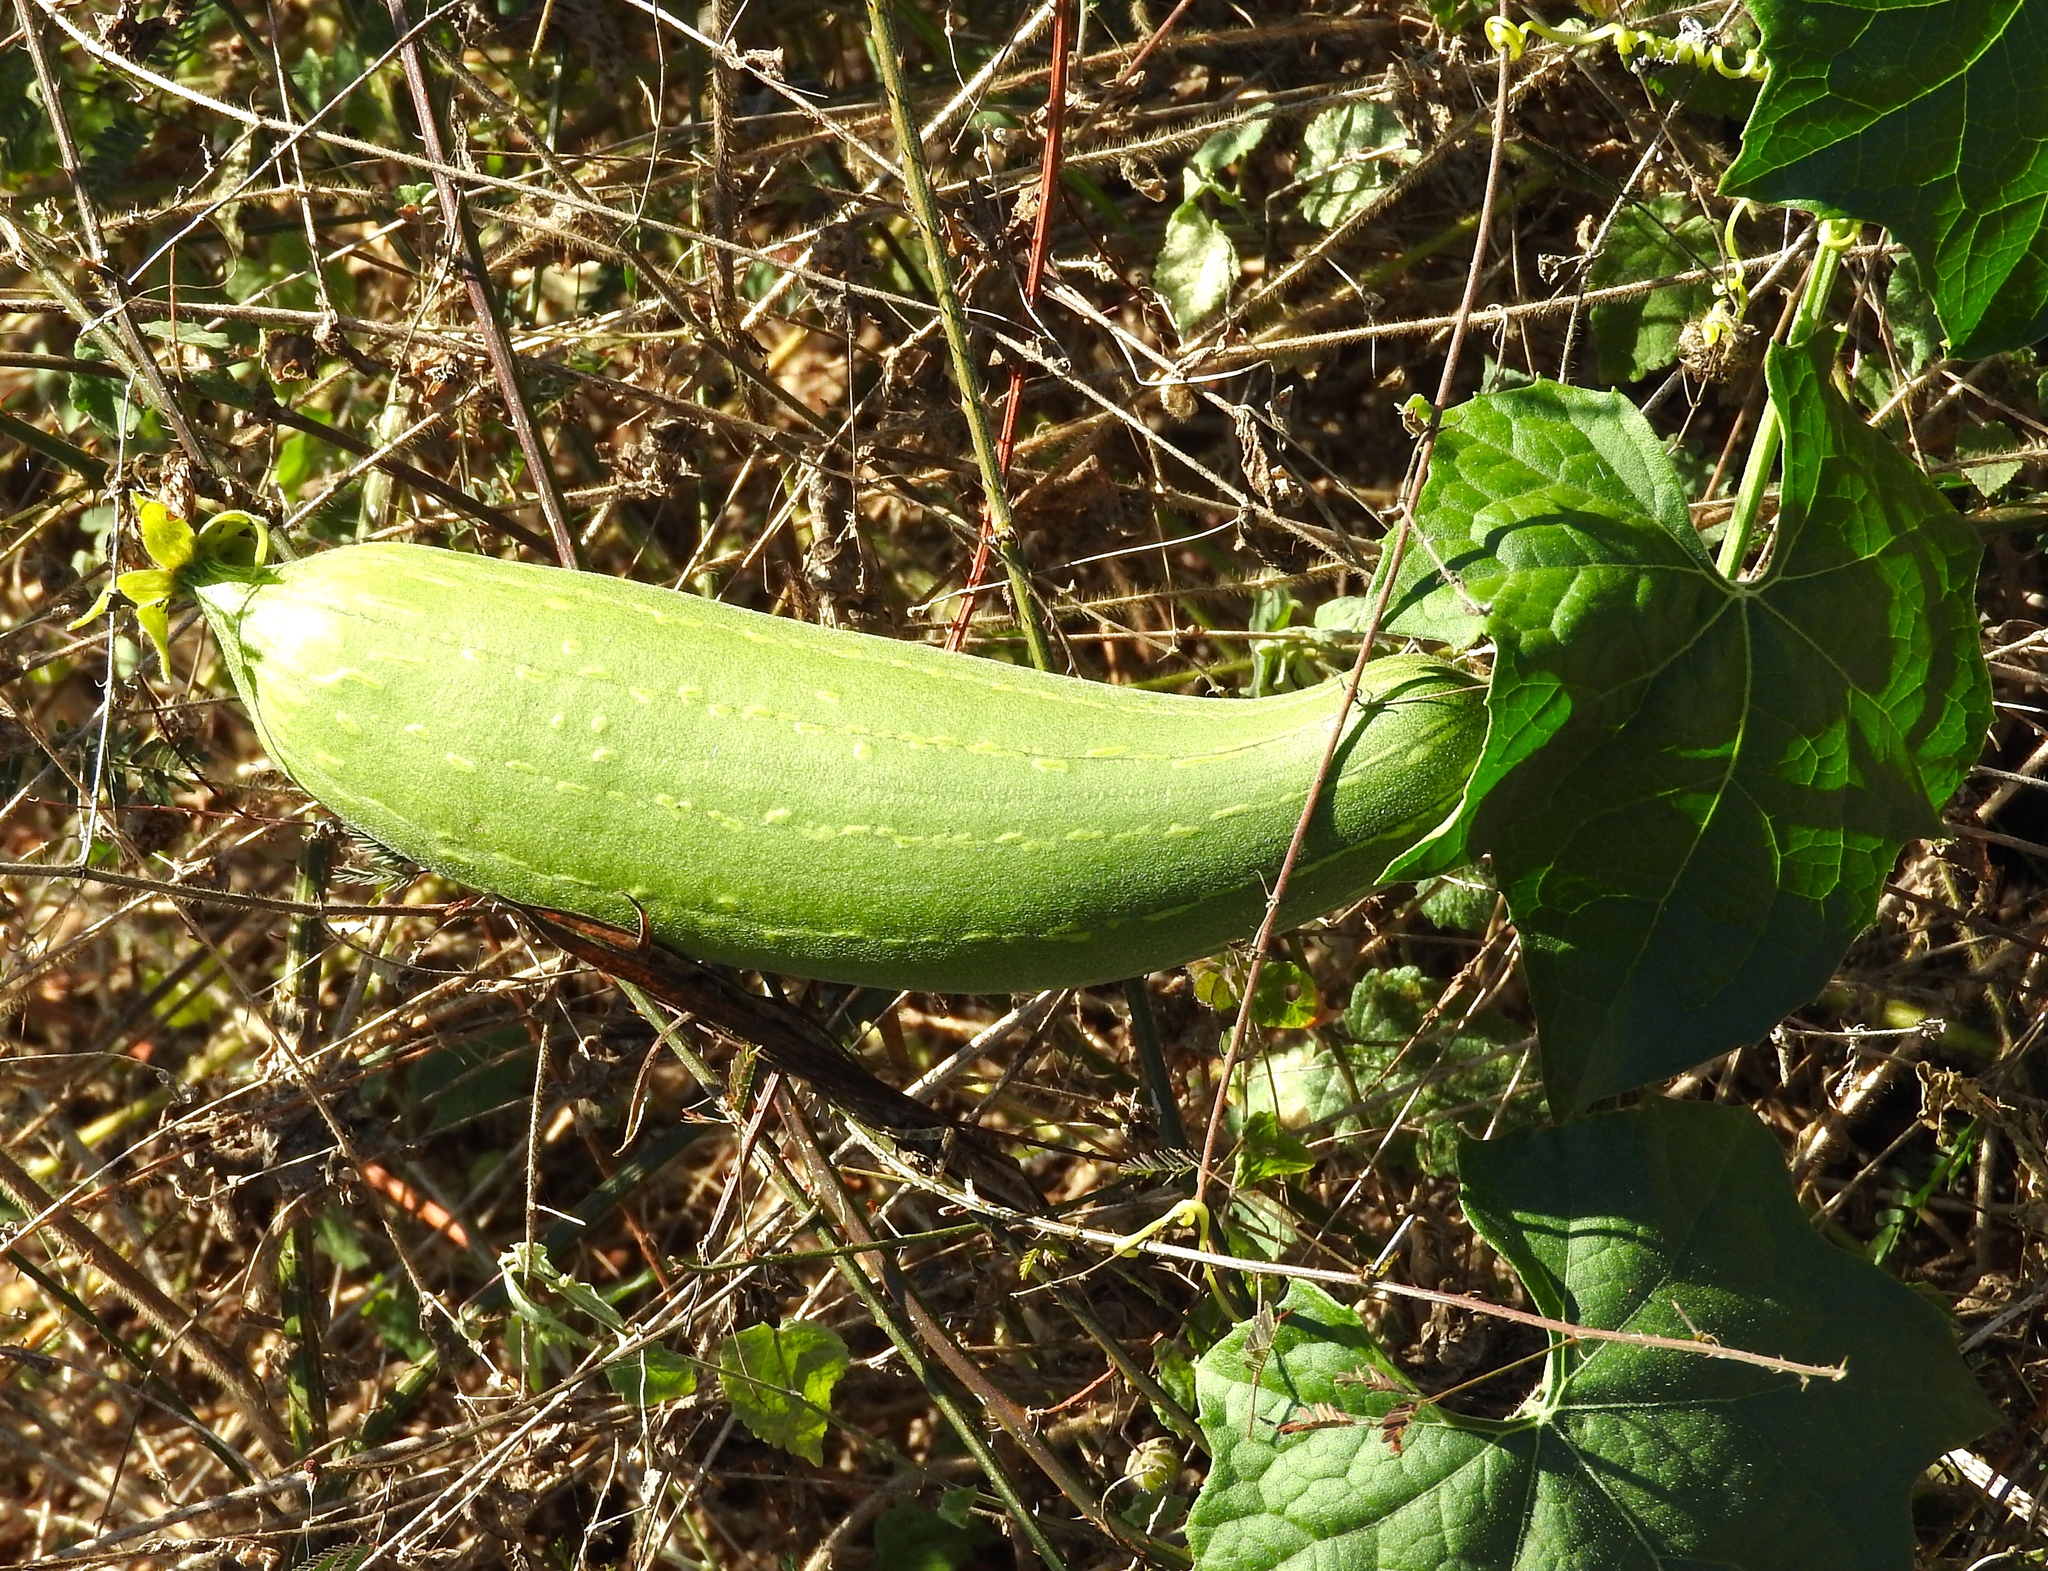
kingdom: Plantae
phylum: Tracheophyta
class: Magnoliopsida
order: Cucurbitales
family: Cucurbitaceae
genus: Luffa
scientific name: Luffa aegyptiaca
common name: Sponge gourd
